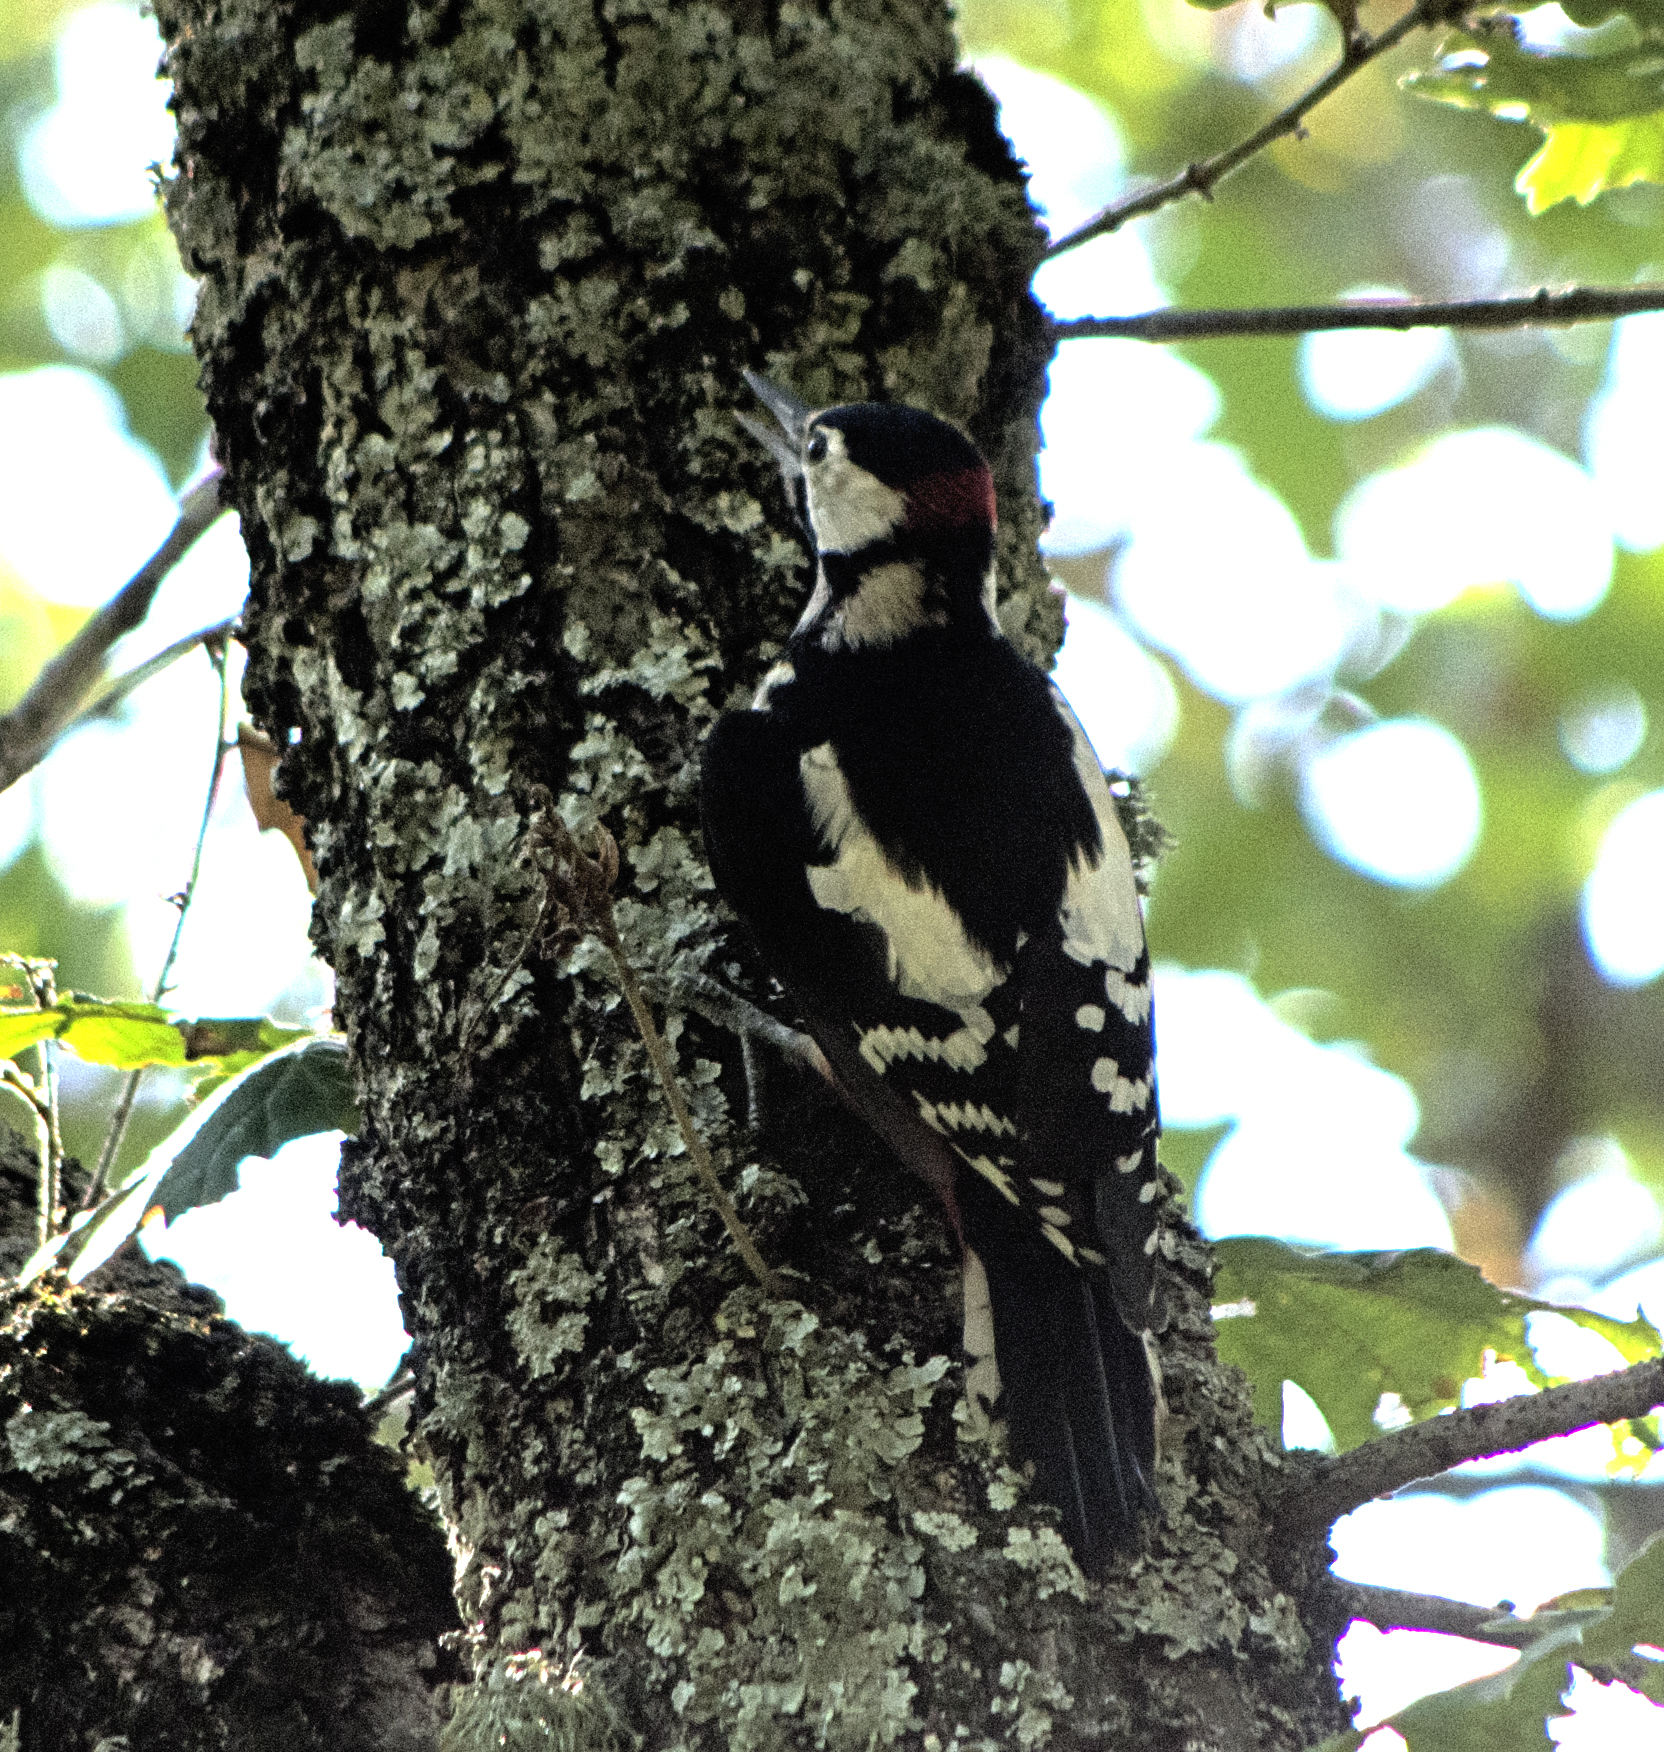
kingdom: Animalia
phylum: Chordata
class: Aves
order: Piciformes
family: Picidae
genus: Dendrocopos
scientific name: Dendrocopos major
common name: Great spotted woodpecker
